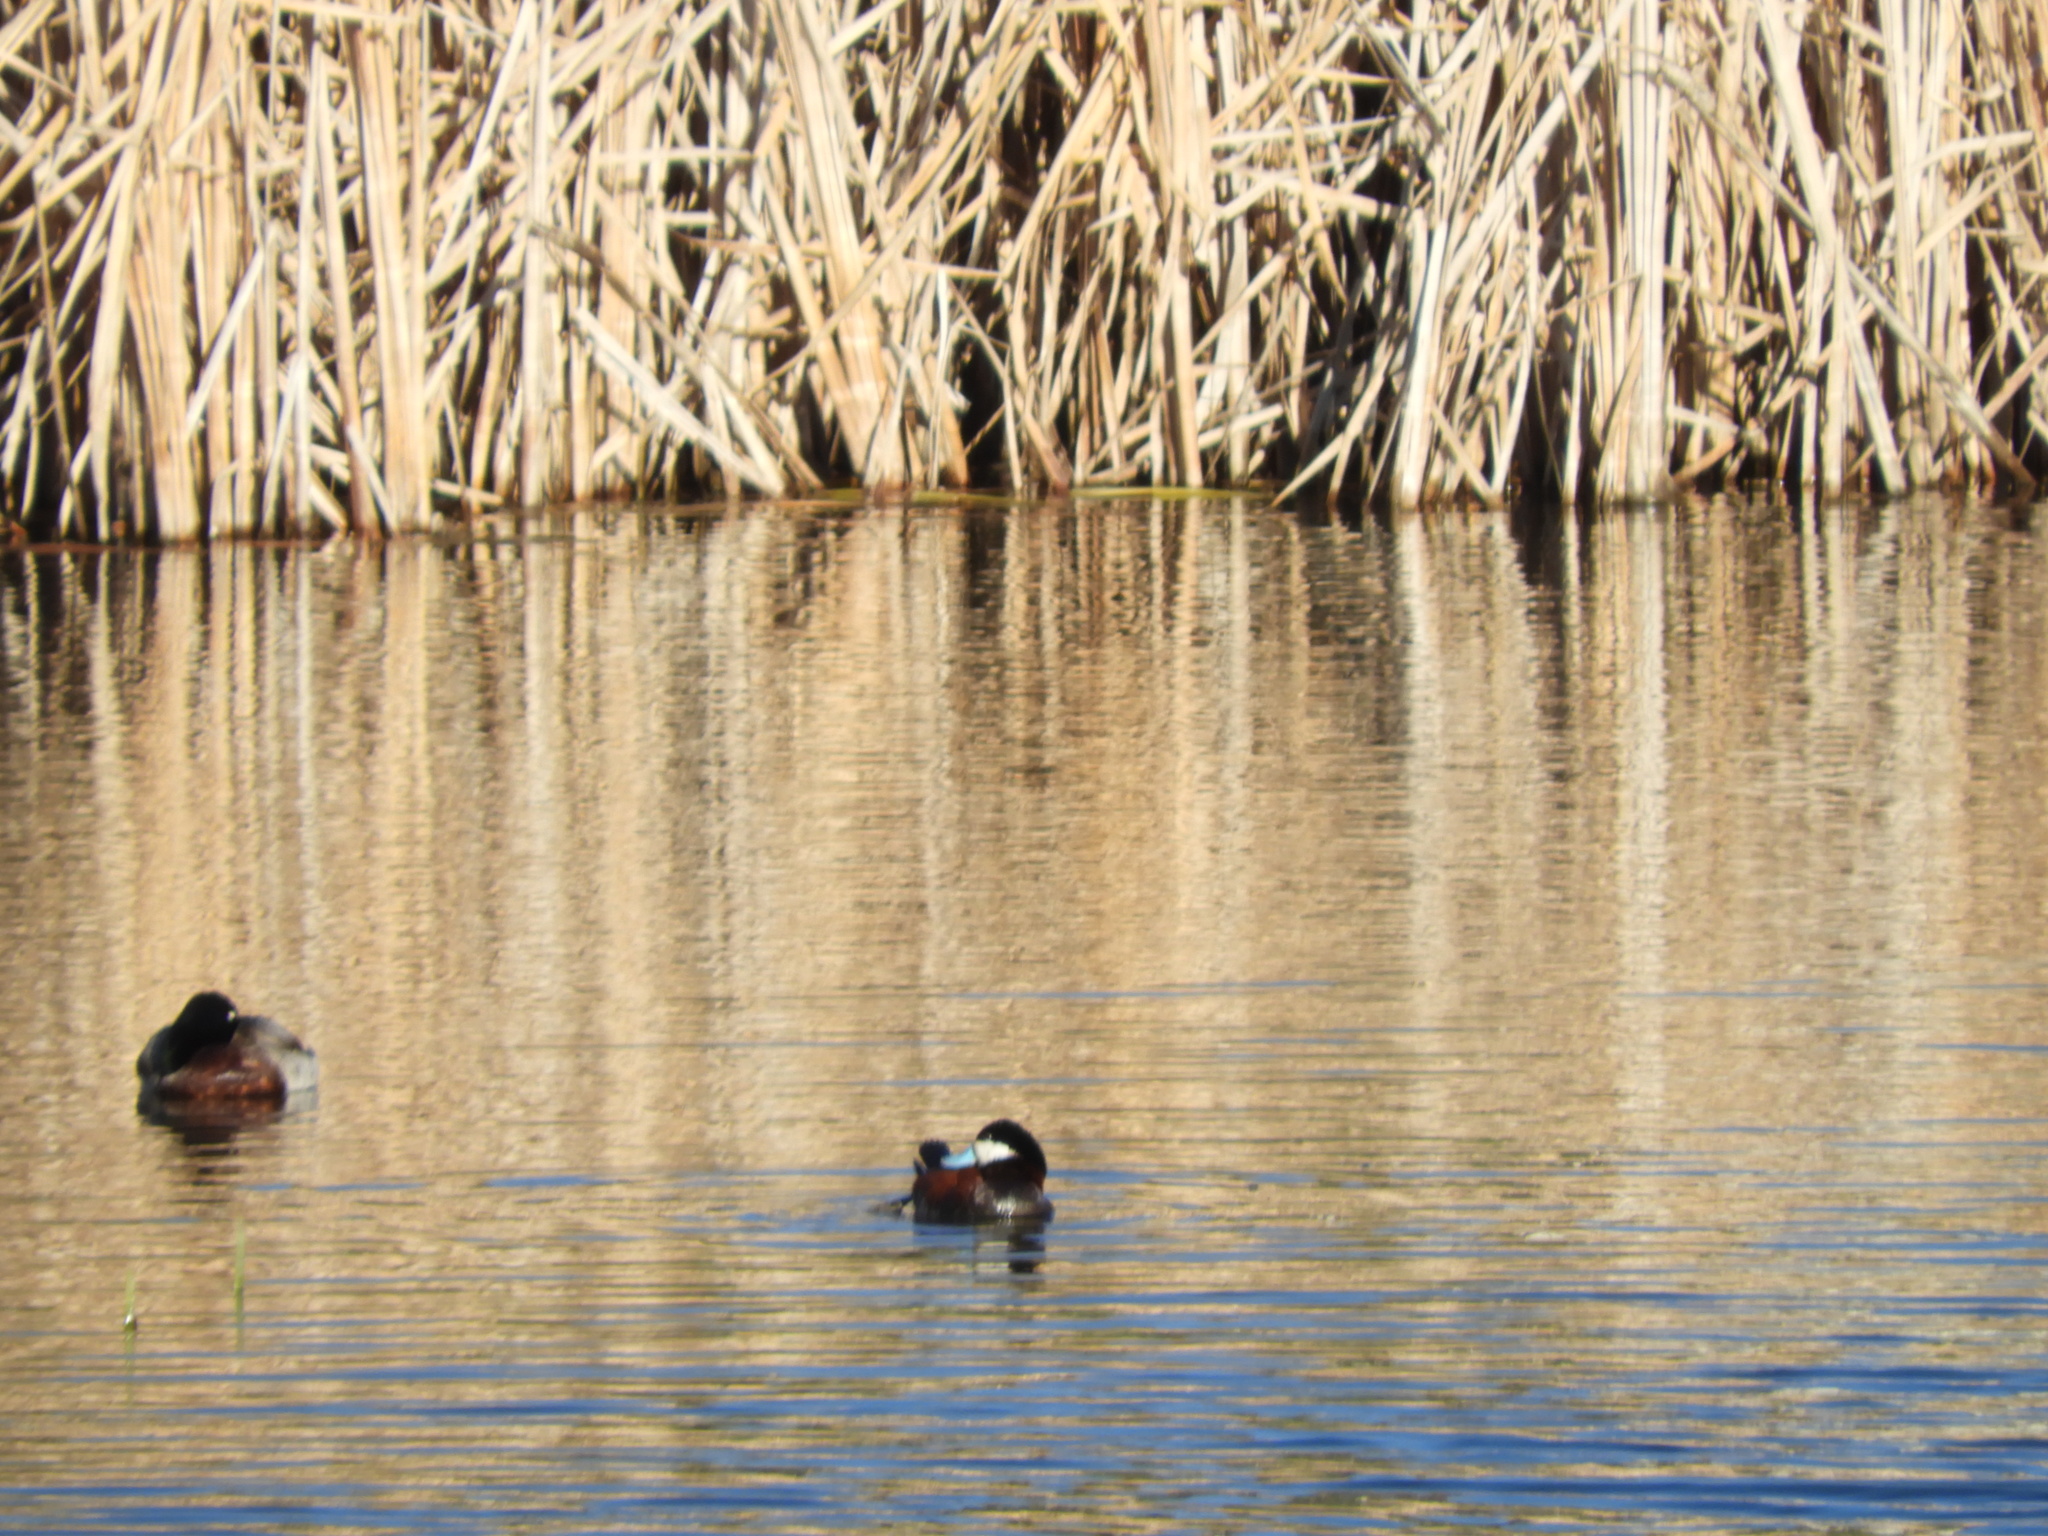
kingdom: Animalia
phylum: Chordata
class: Aves
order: Anseriformes
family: Anatidae
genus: Oxyura
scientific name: Oxyura jamaicensis
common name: Ruddy duck
